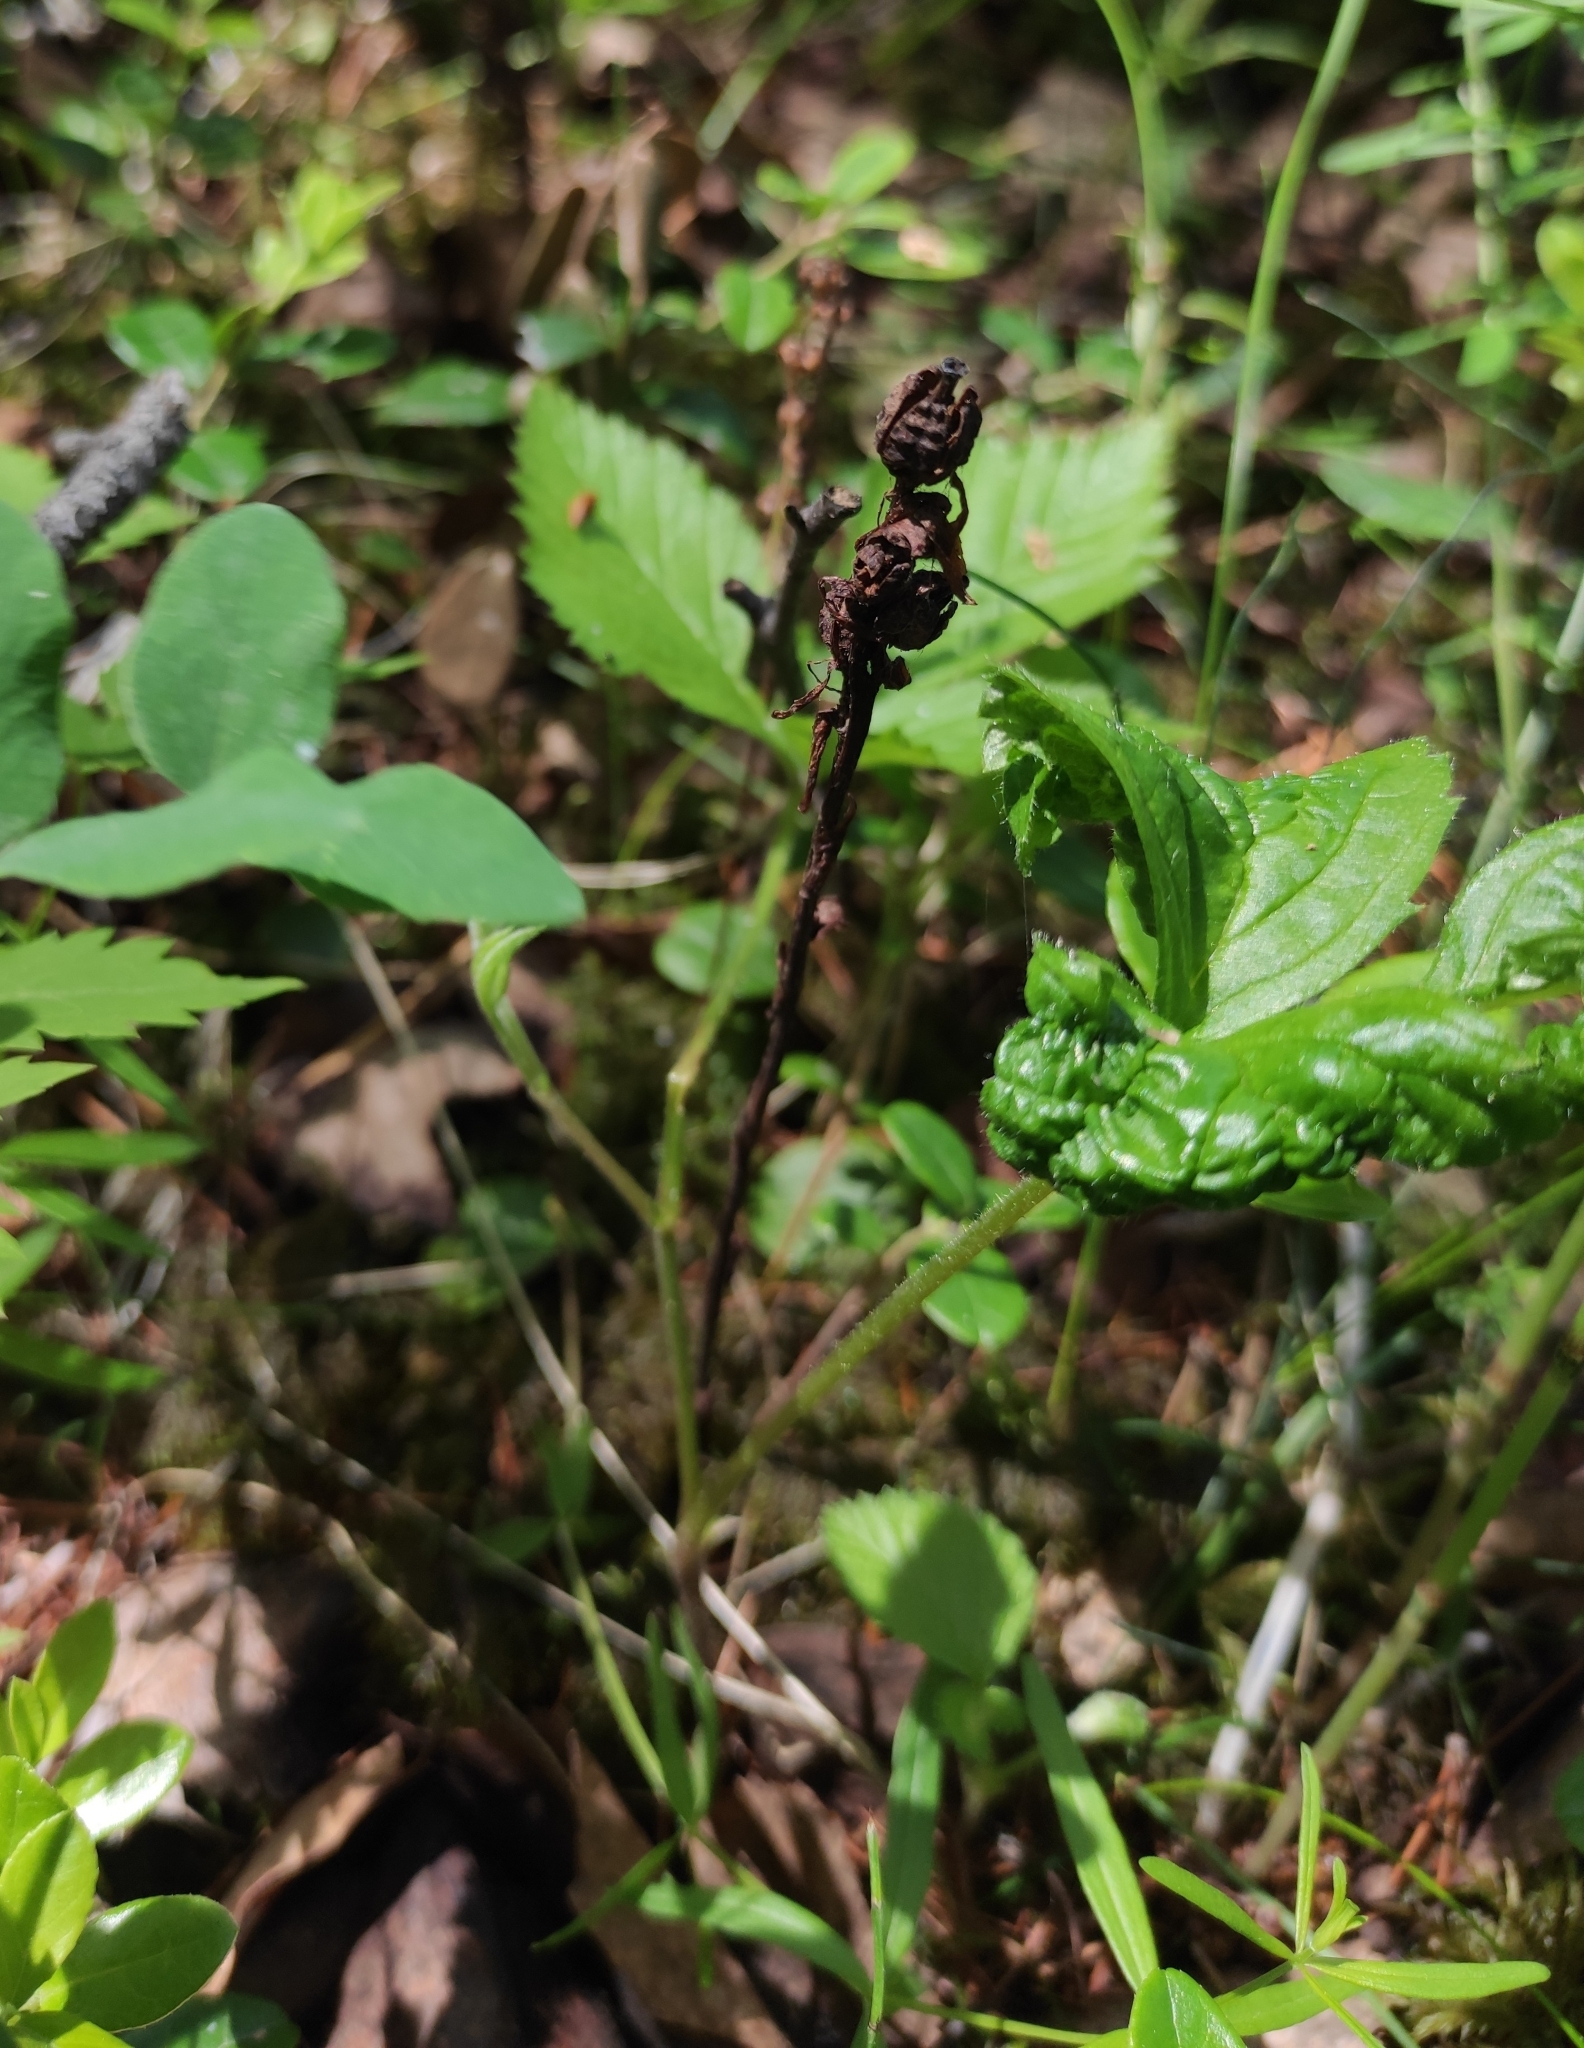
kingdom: Plantae
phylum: Tracheophyta
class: Magnoliopsida
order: Ericales
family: Ericaceae
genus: Hypopitys
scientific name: Hypopitys monotropa
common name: Yellow bird's-nest
